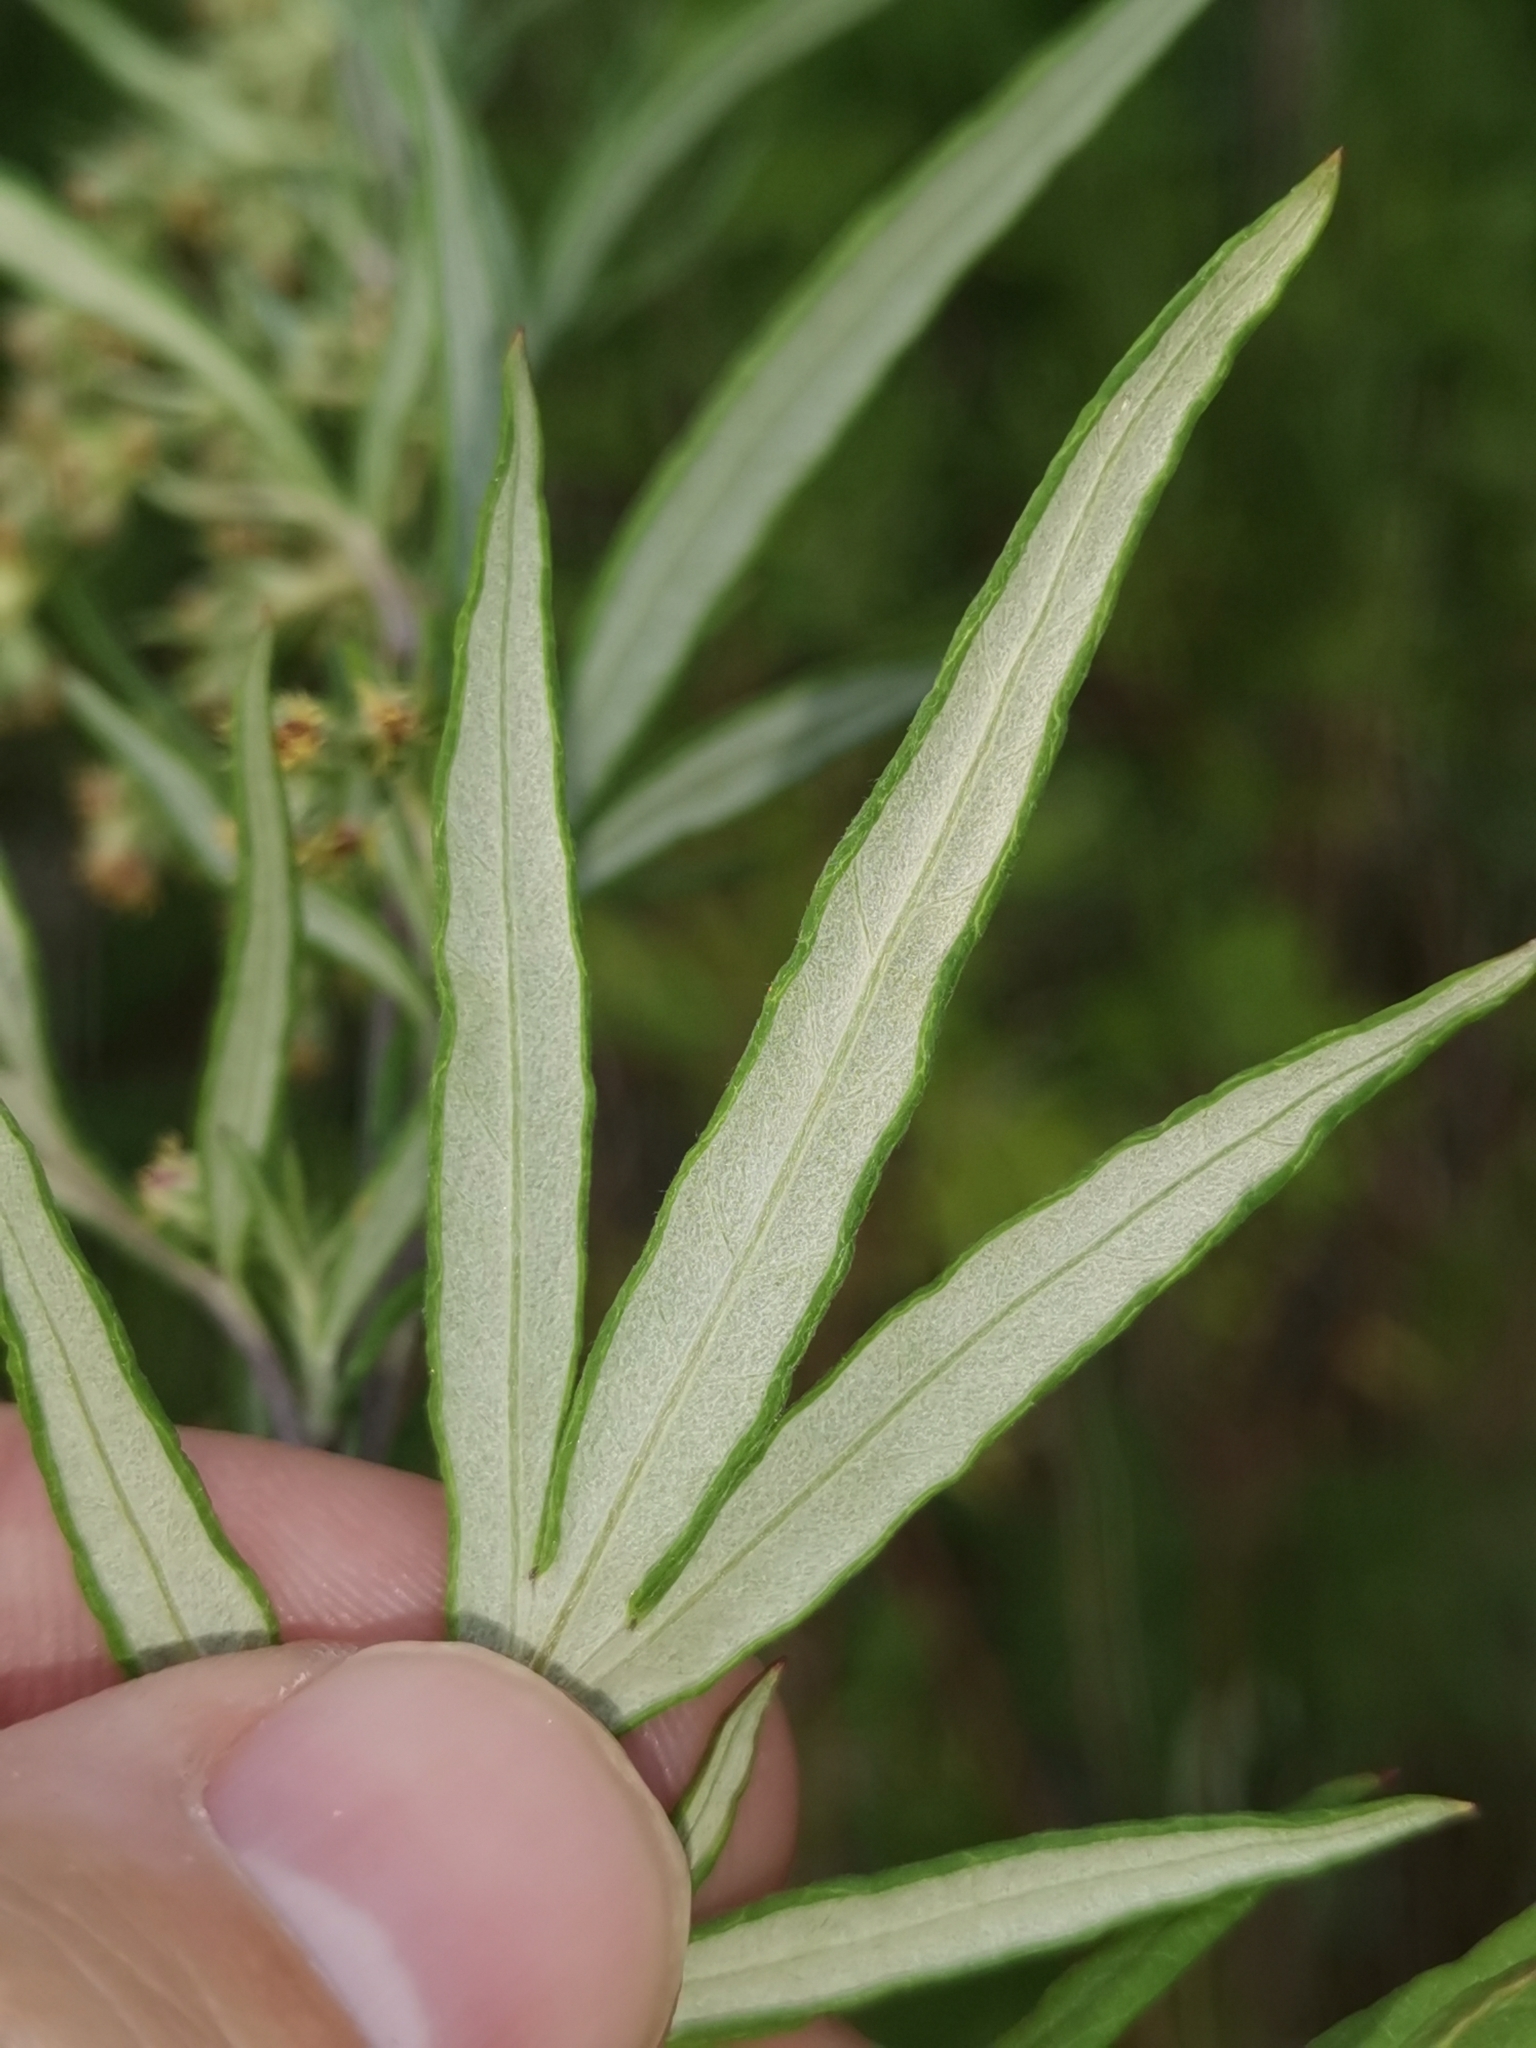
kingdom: Plantae
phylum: Tracheophyta
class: Magnoliopsida
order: Asterales
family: Asteraceae
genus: Artemisia
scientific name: Artemisia verlotiorum
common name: Chinese mugwort
